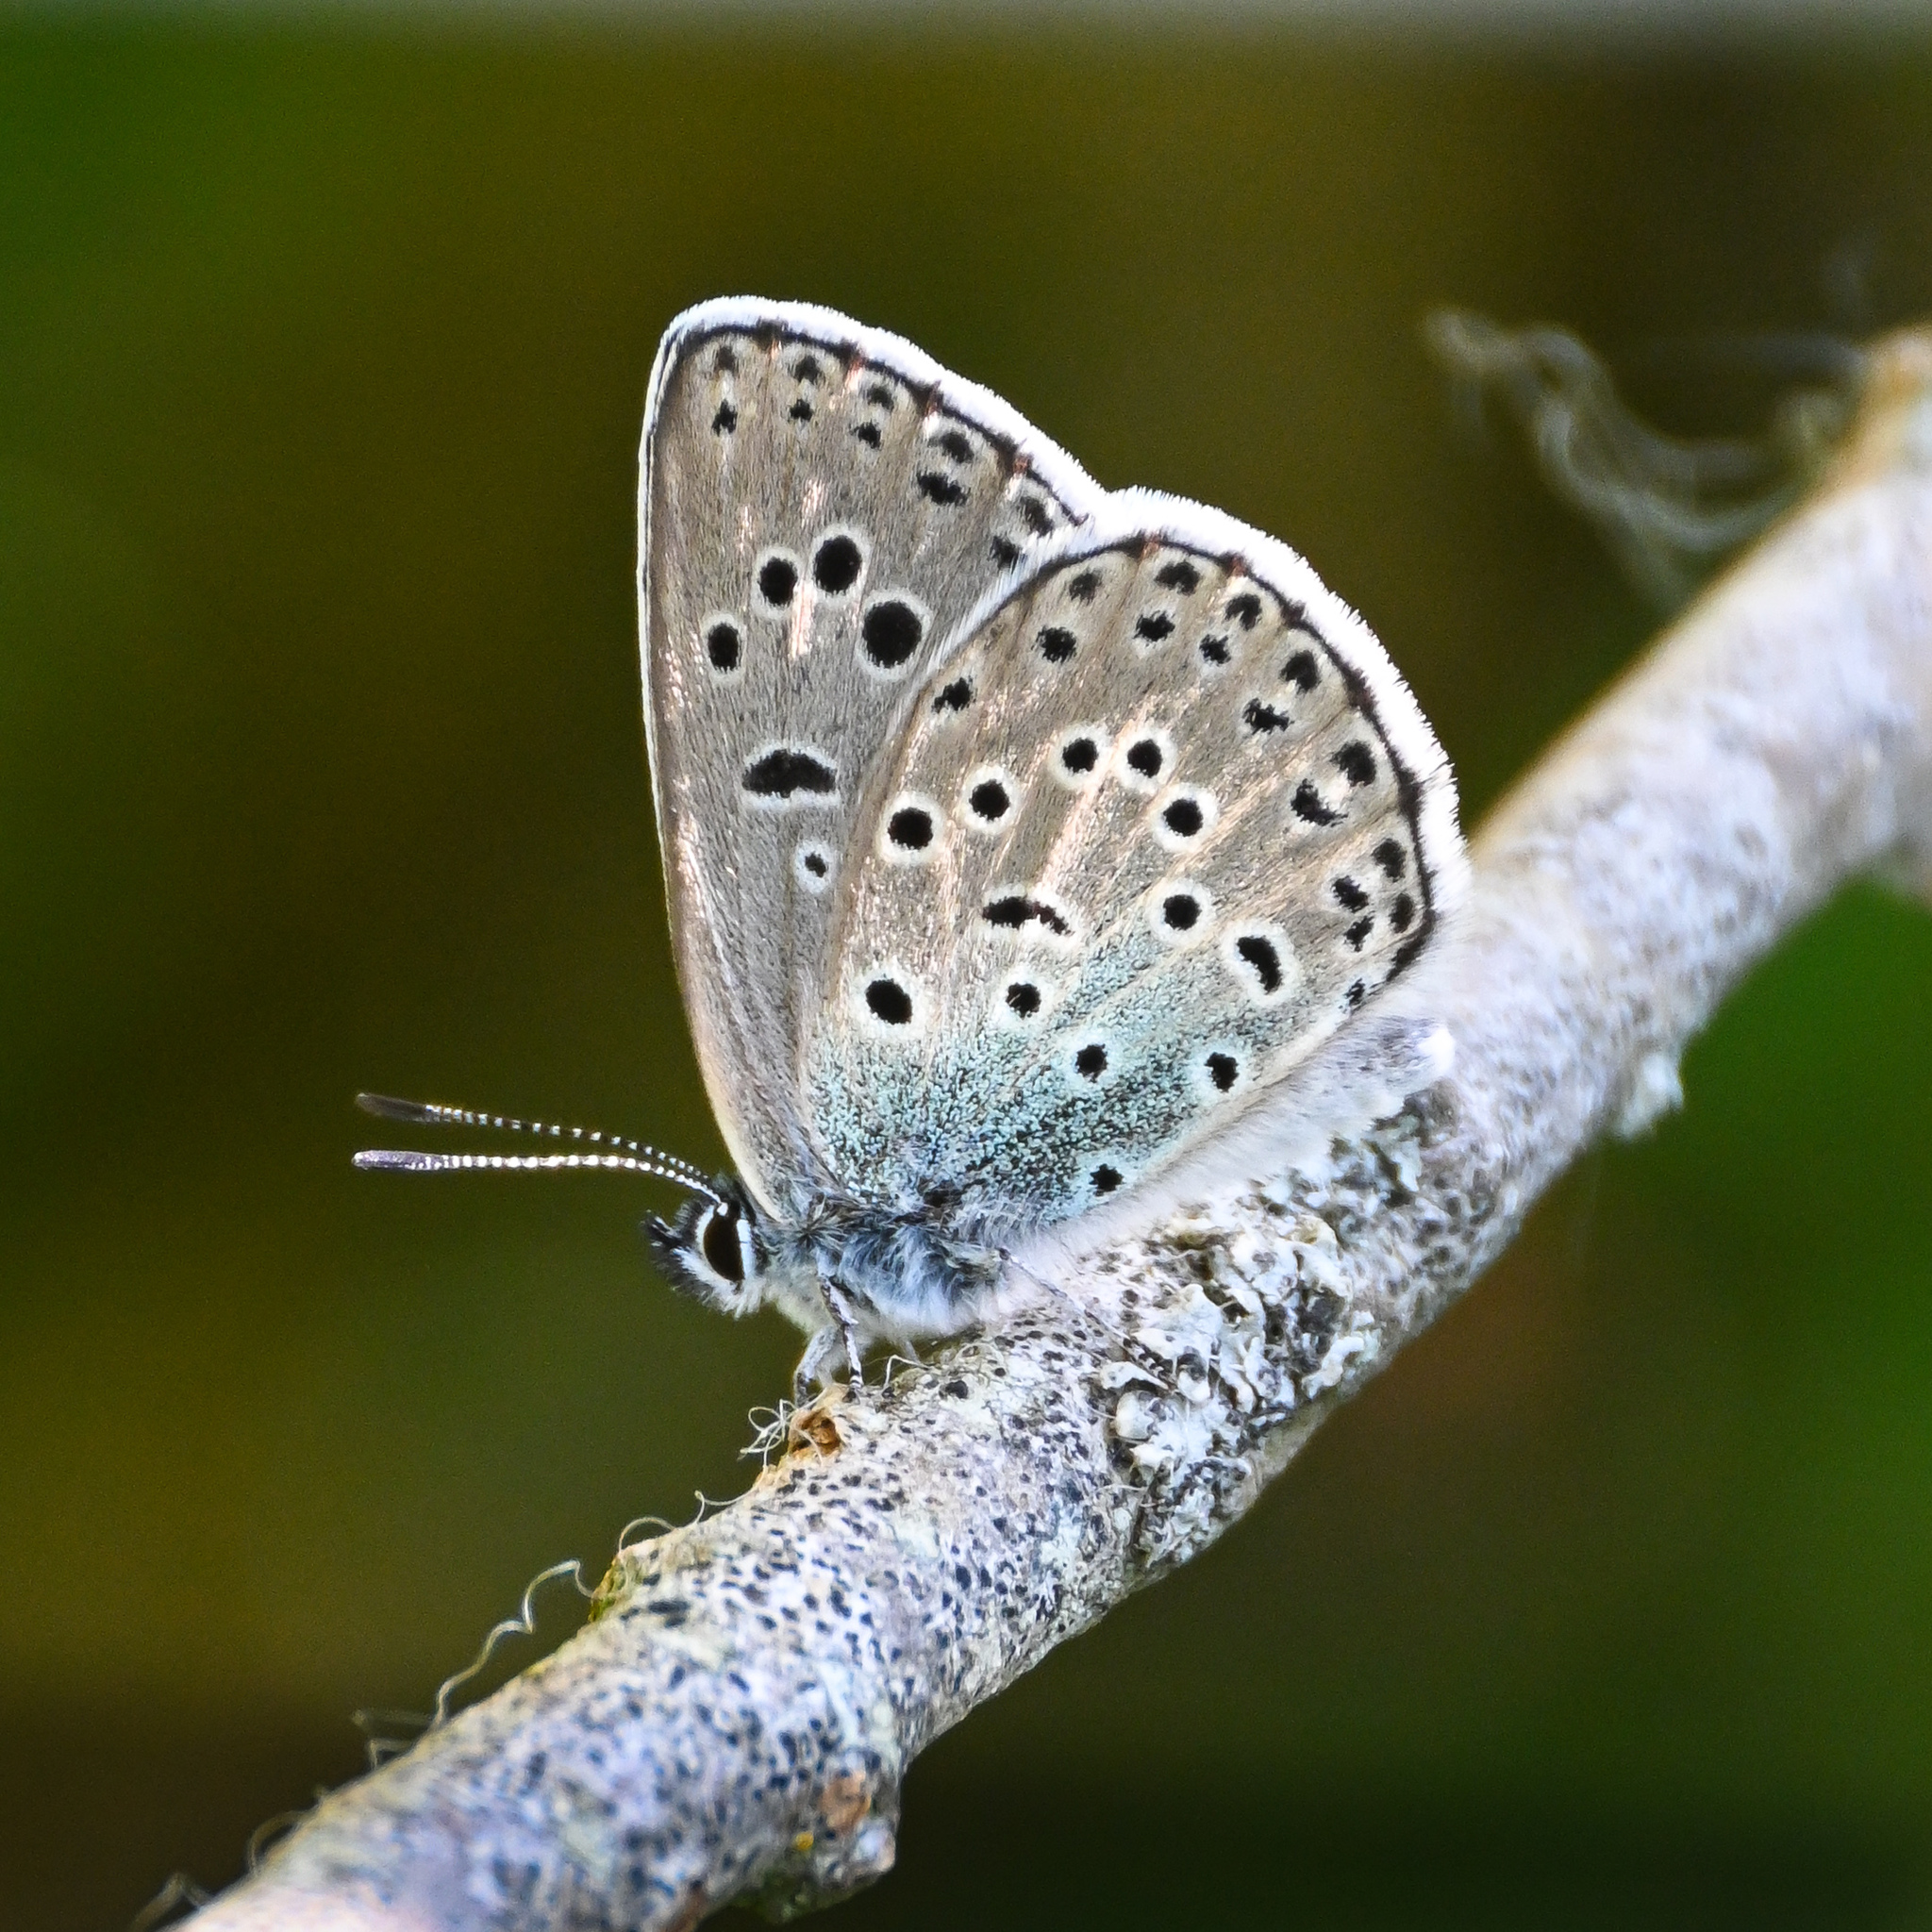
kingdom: Animalia
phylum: Arthropoda
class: Insecta
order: Lepidoptera
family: Lycaenidae
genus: Maculinea
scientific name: Maculinea arion
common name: Large blue
